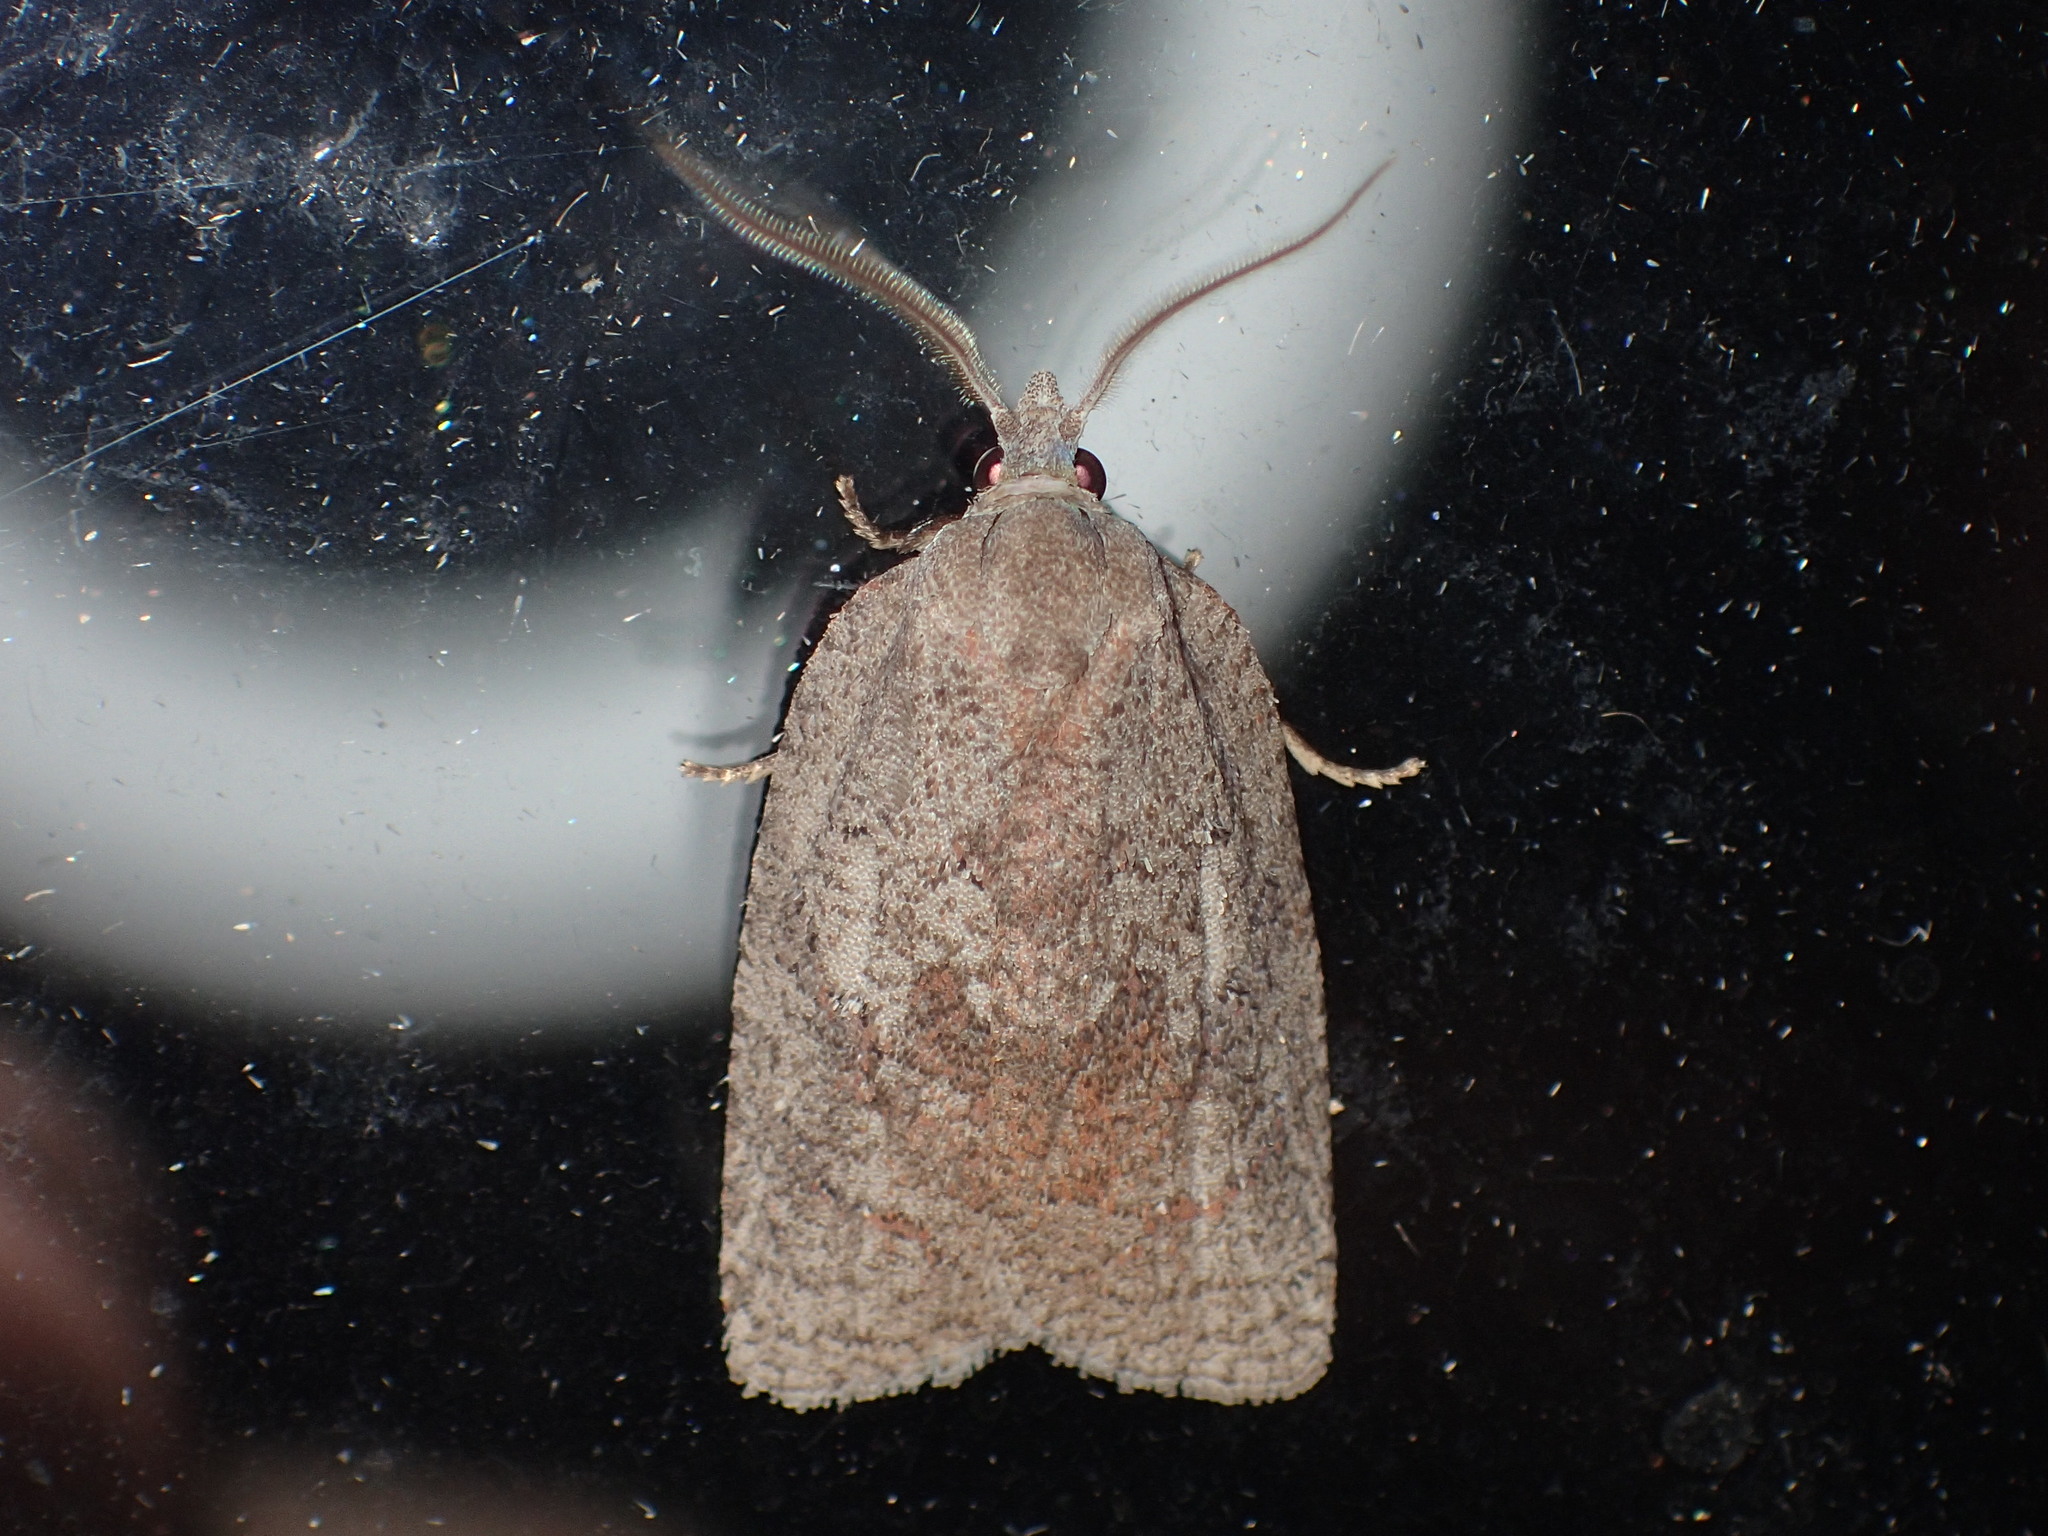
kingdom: Animalia
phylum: Arthropoda
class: Insecta
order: Lepidoptera
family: Tortricidae
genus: Amorbia
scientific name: Amorbia humerosana
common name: White-lined leafroller moth
